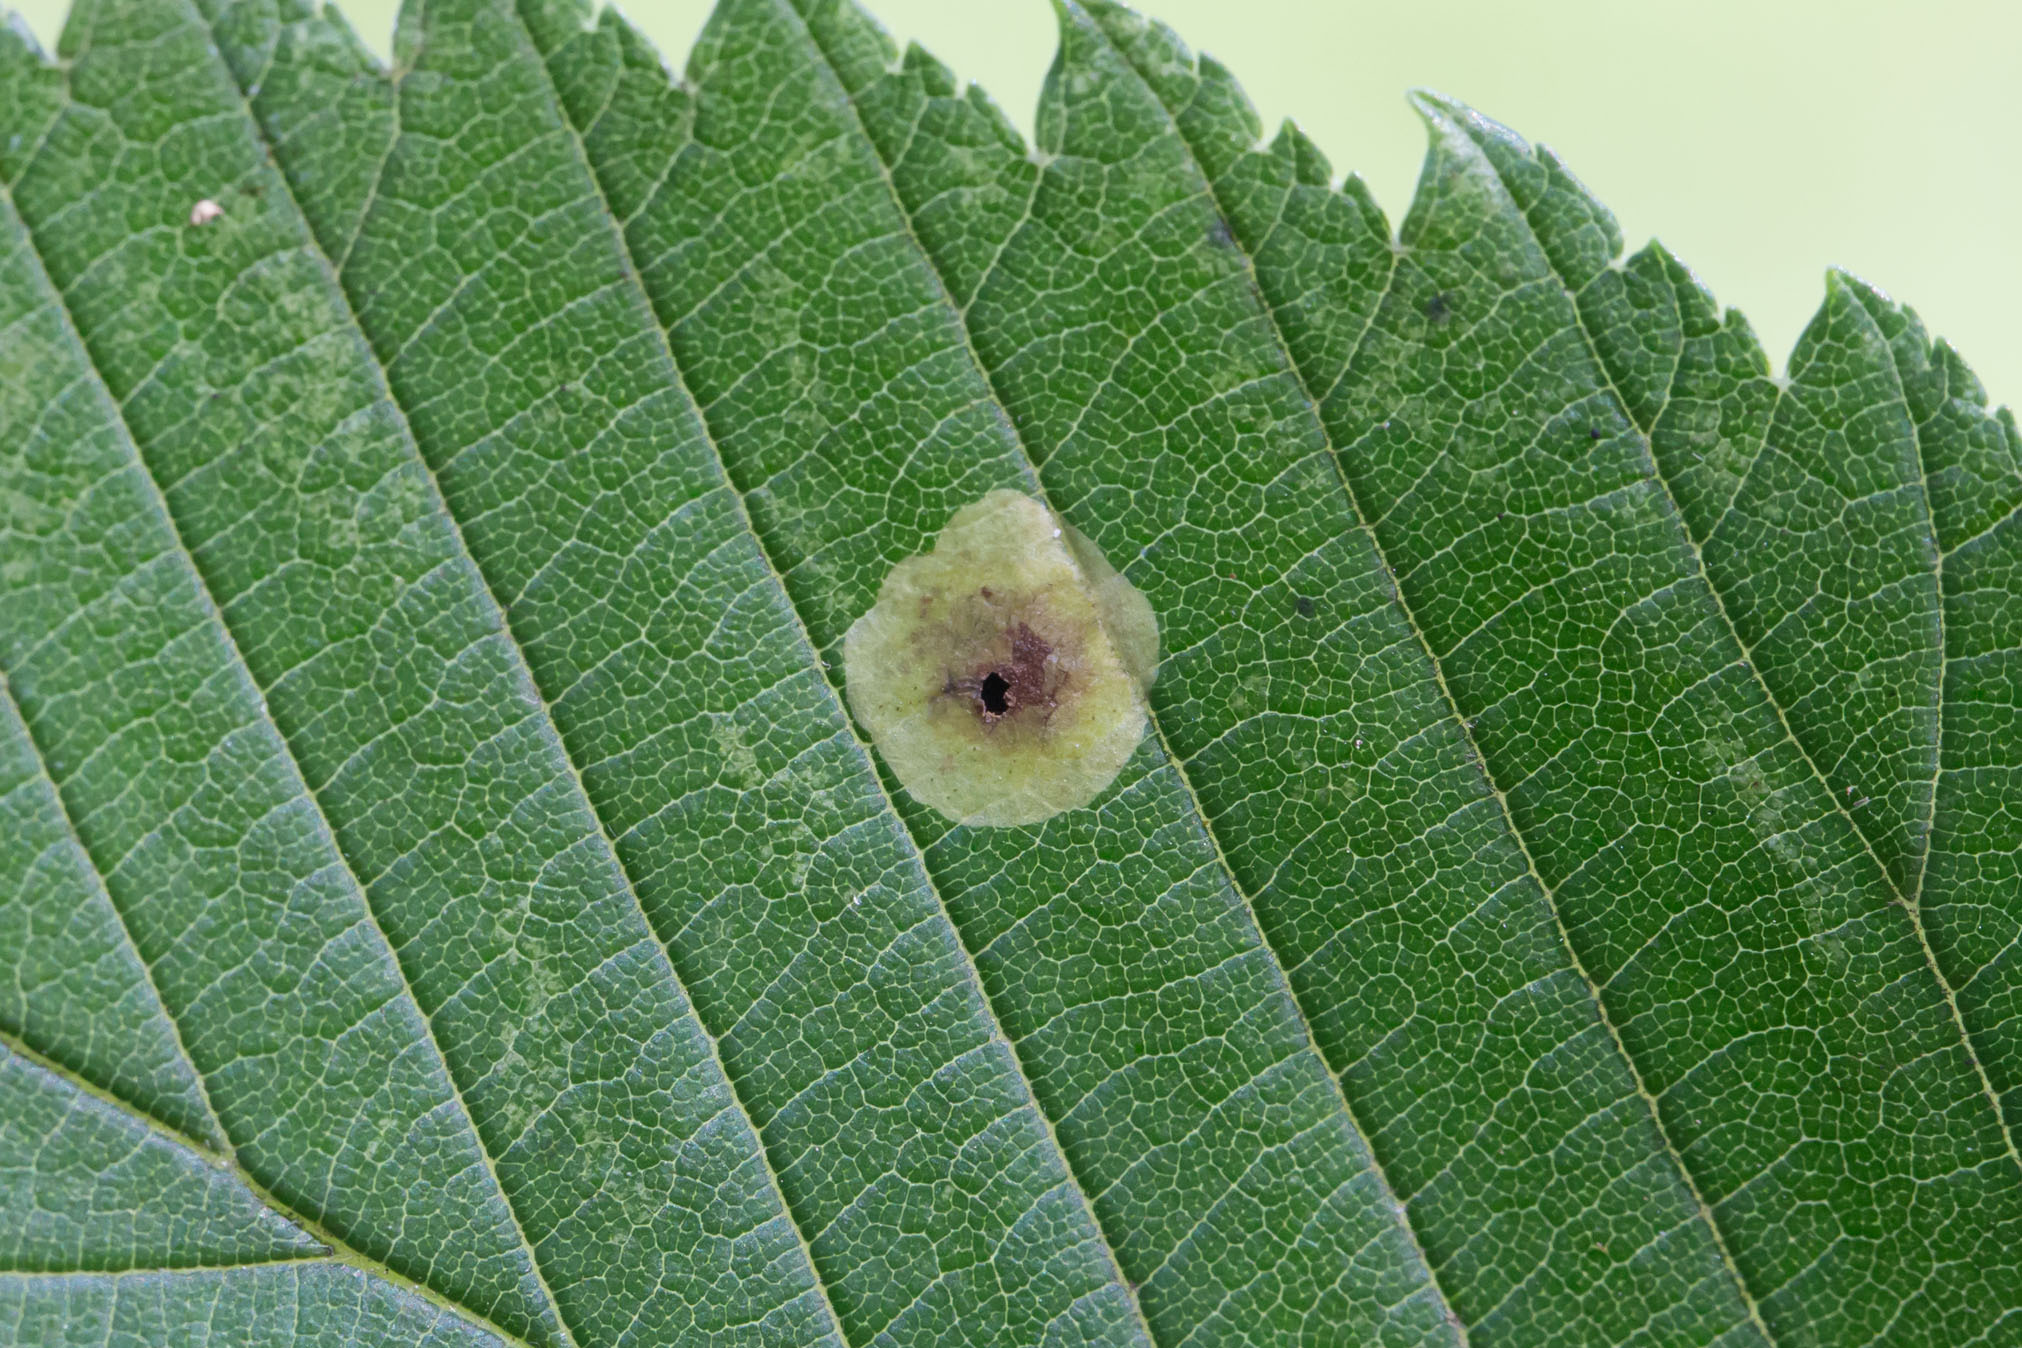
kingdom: Animalia
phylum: Arthropoda
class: Insecta
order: Lepidoptera
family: Gracillariidae
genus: Cameraria
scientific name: Cameraria ulmella
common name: Elm leafminer
